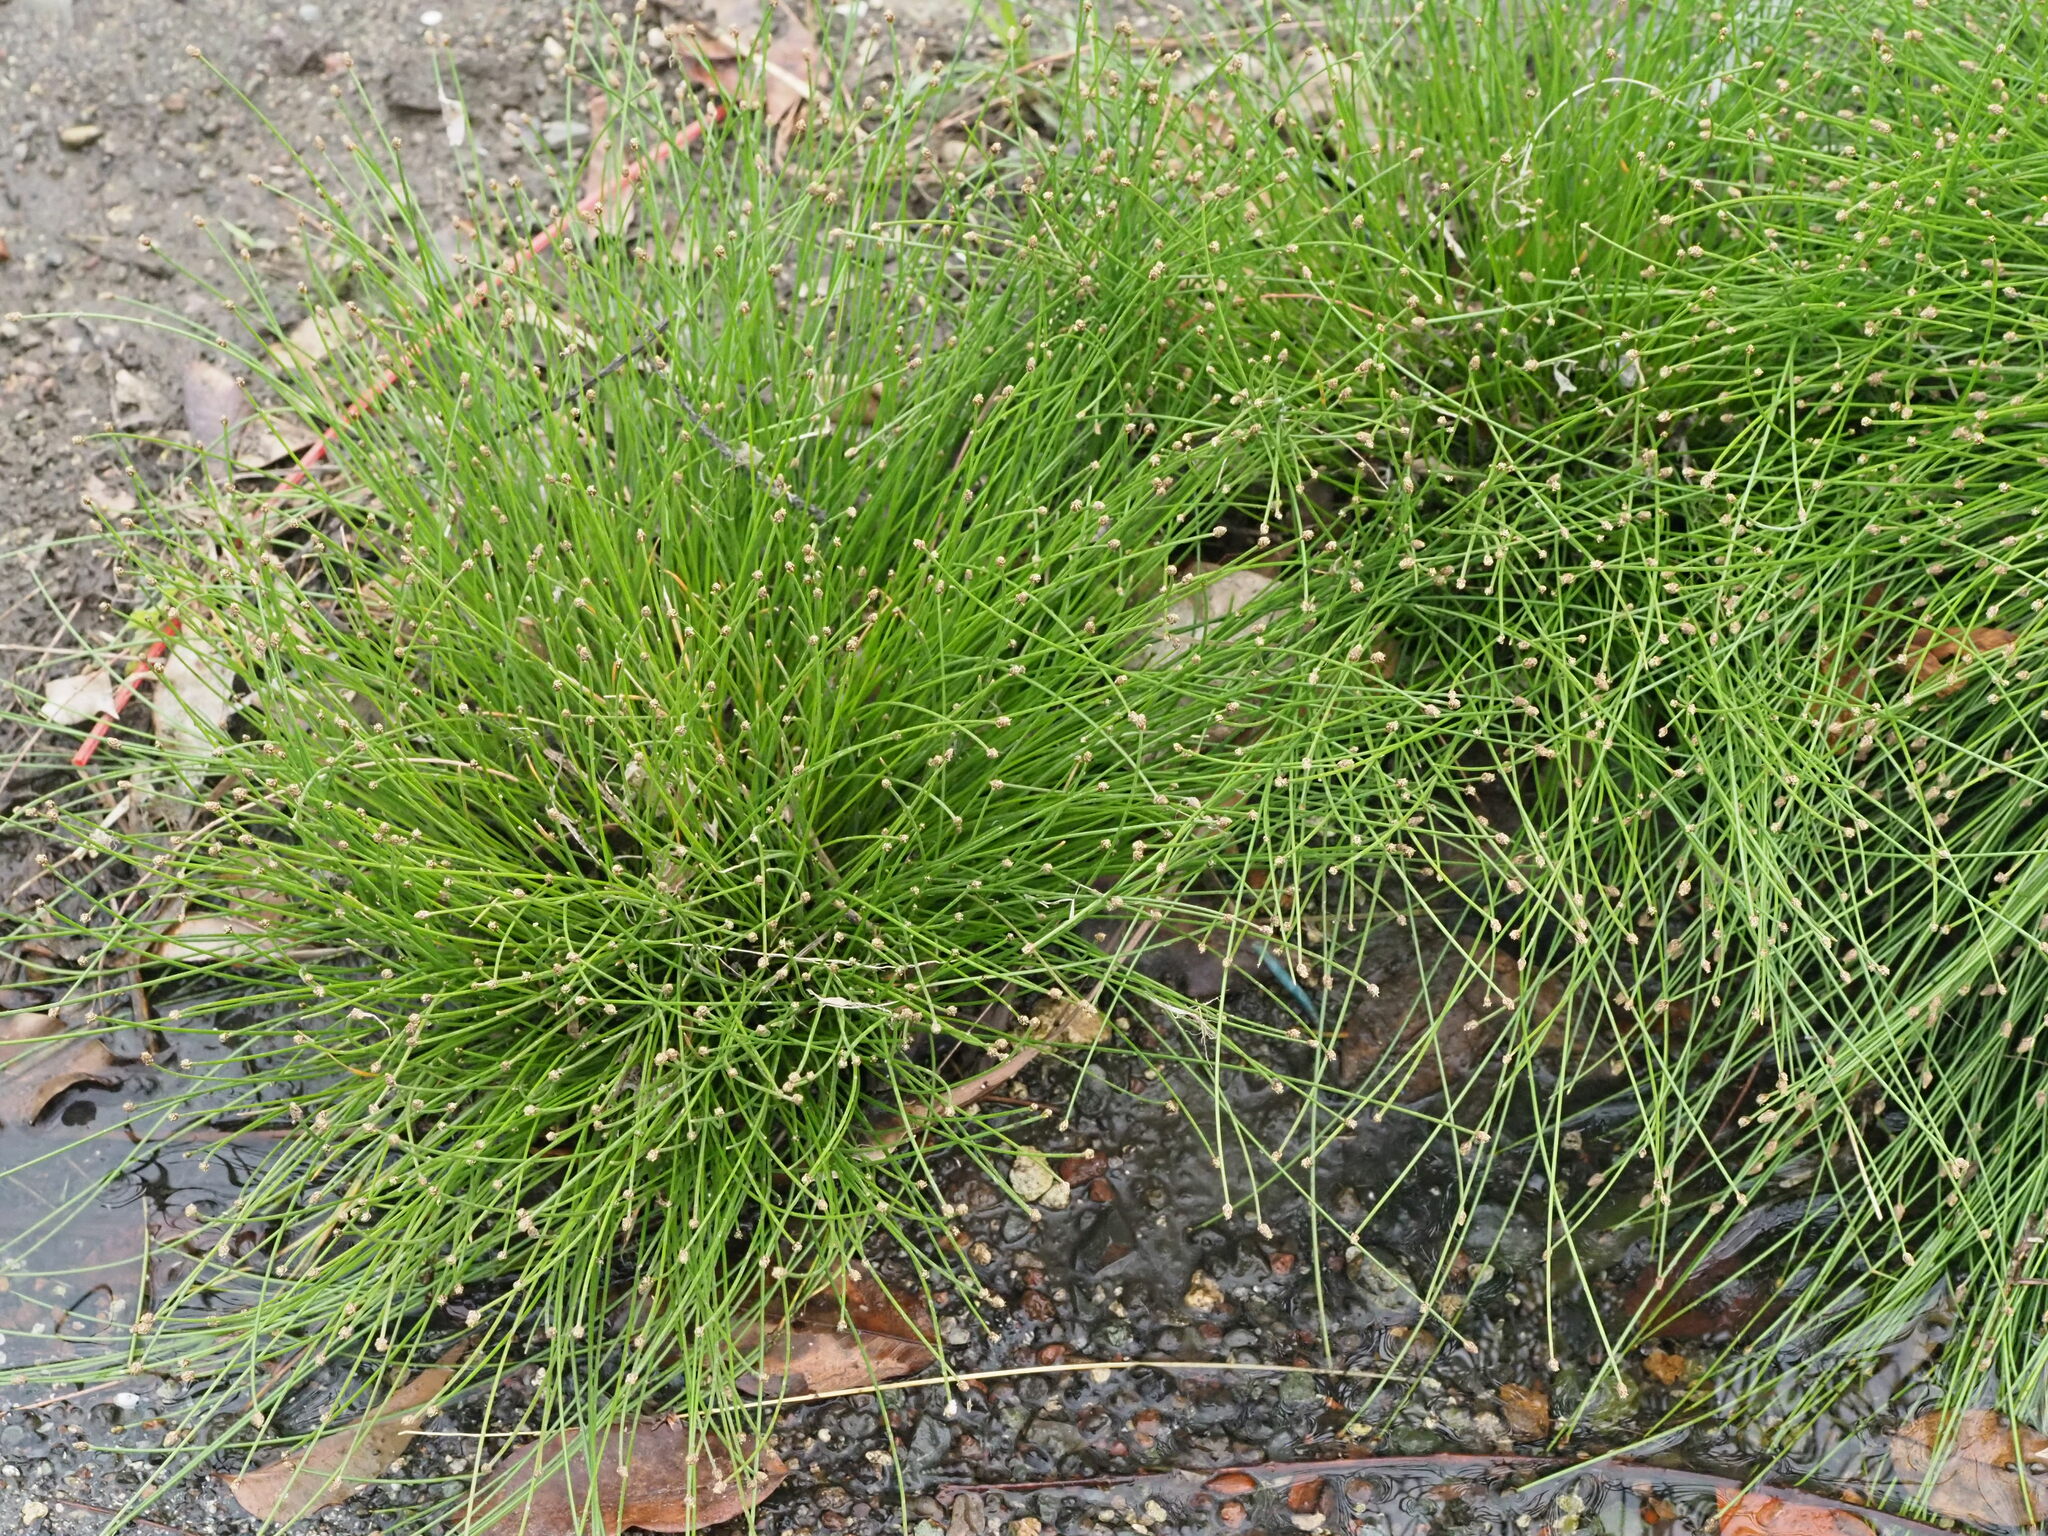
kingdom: Plantae
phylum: Tracheophyta
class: Liliopsida
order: Poales
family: Cyperaceae
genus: Eleocharis
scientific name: Eleocharis geniculata
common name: Canada spikesedge
